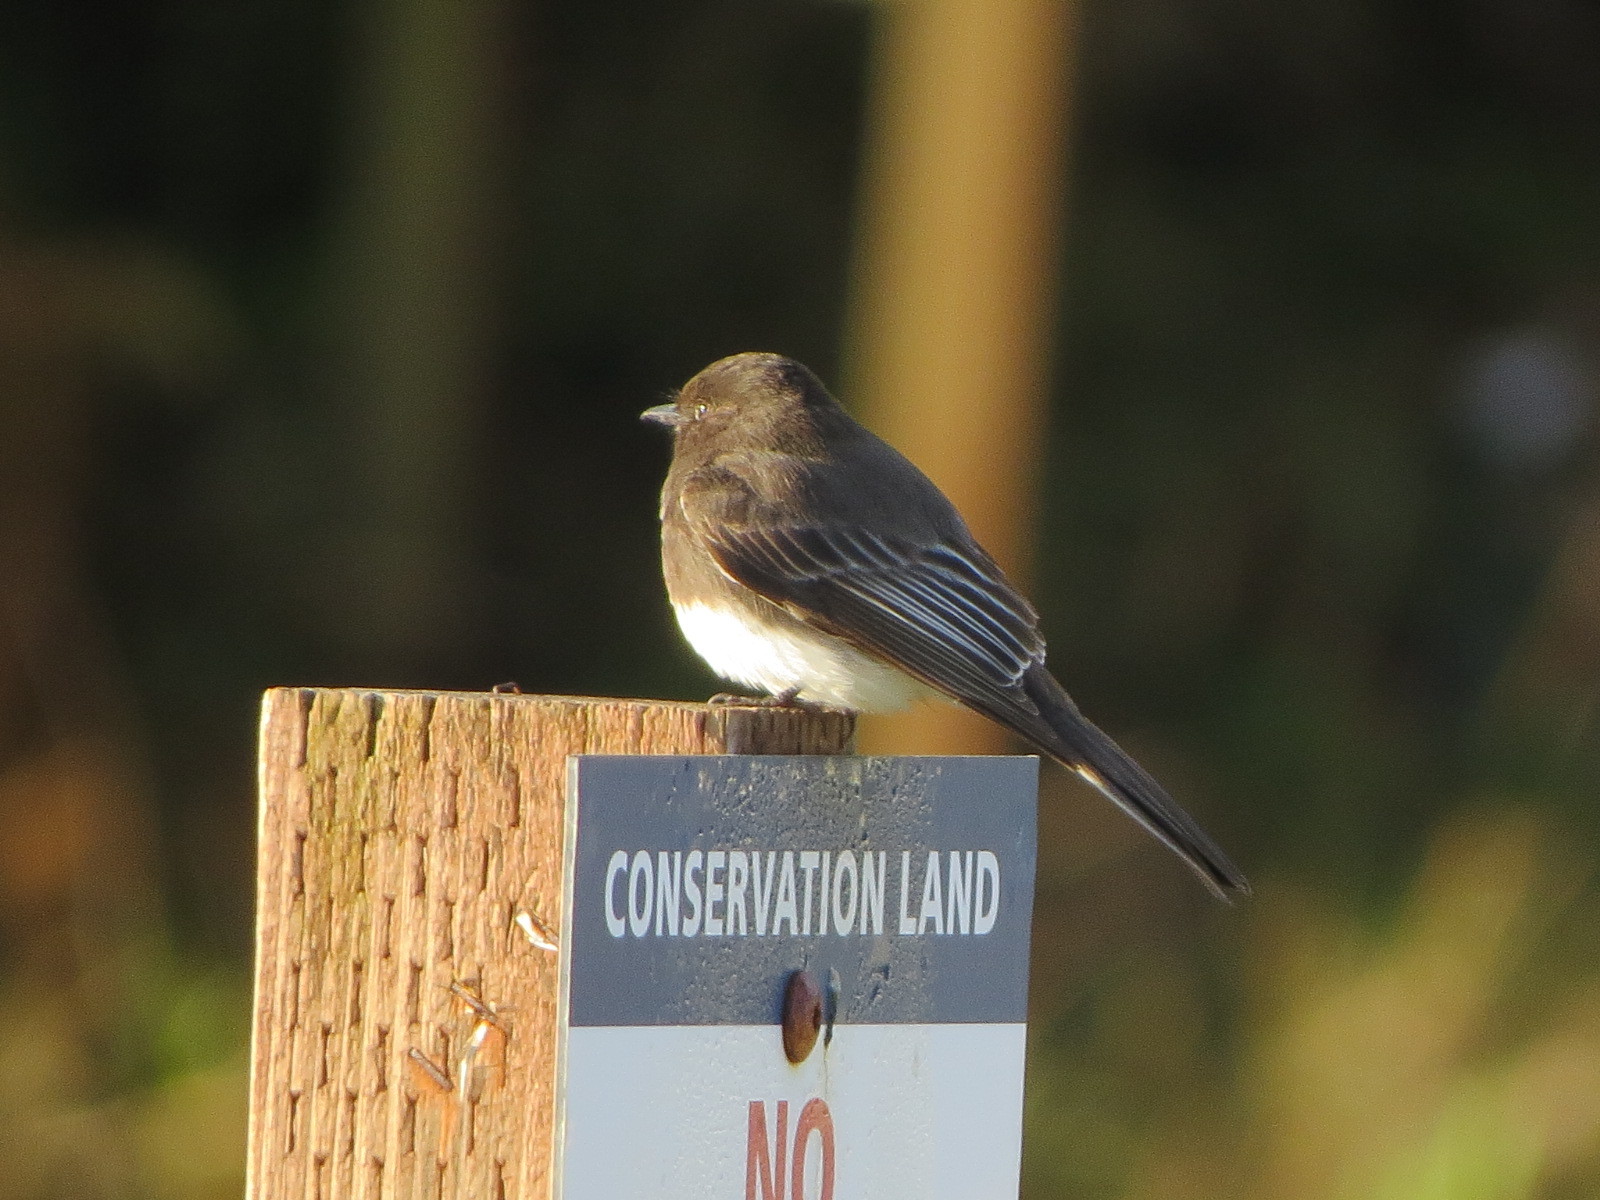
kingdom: Animalia
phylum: Chordata
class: Aves
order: Passeriformes
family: Tyrannidae
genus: Sayornis
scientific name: Sayornis nigricans
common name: Black phoebe
